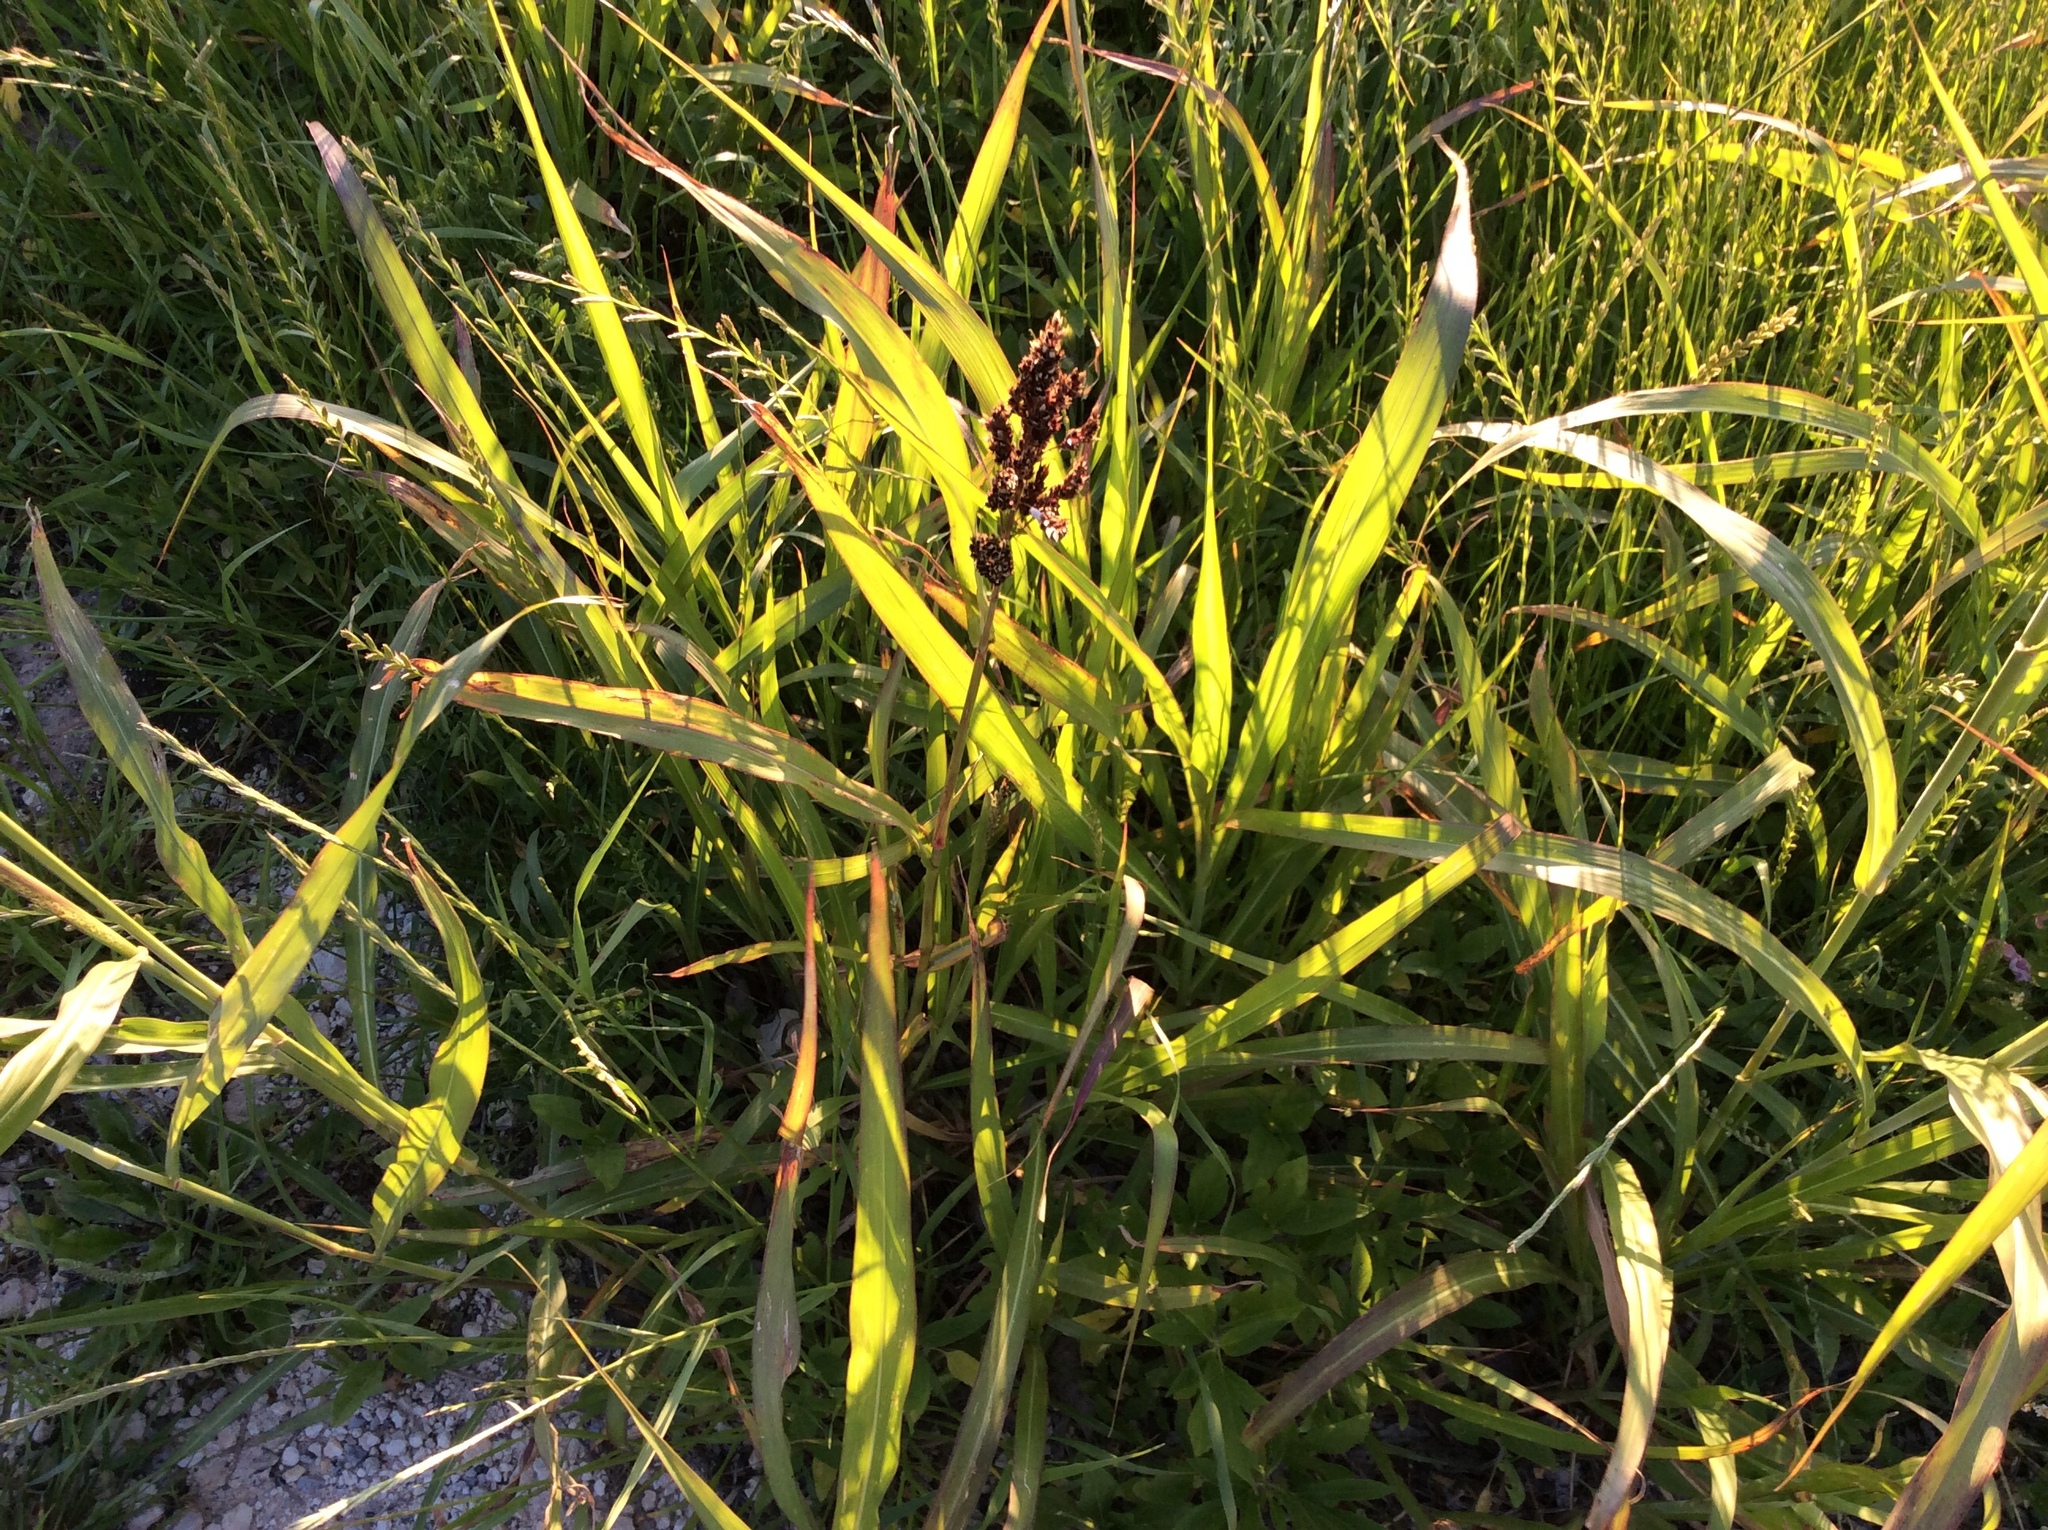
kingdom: Plantae
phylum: Tracheophyta
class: Liliopsida
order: Poales
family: Poaceae
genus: Sorghum
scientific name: Sorghum halepense
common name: Johnson-grass
